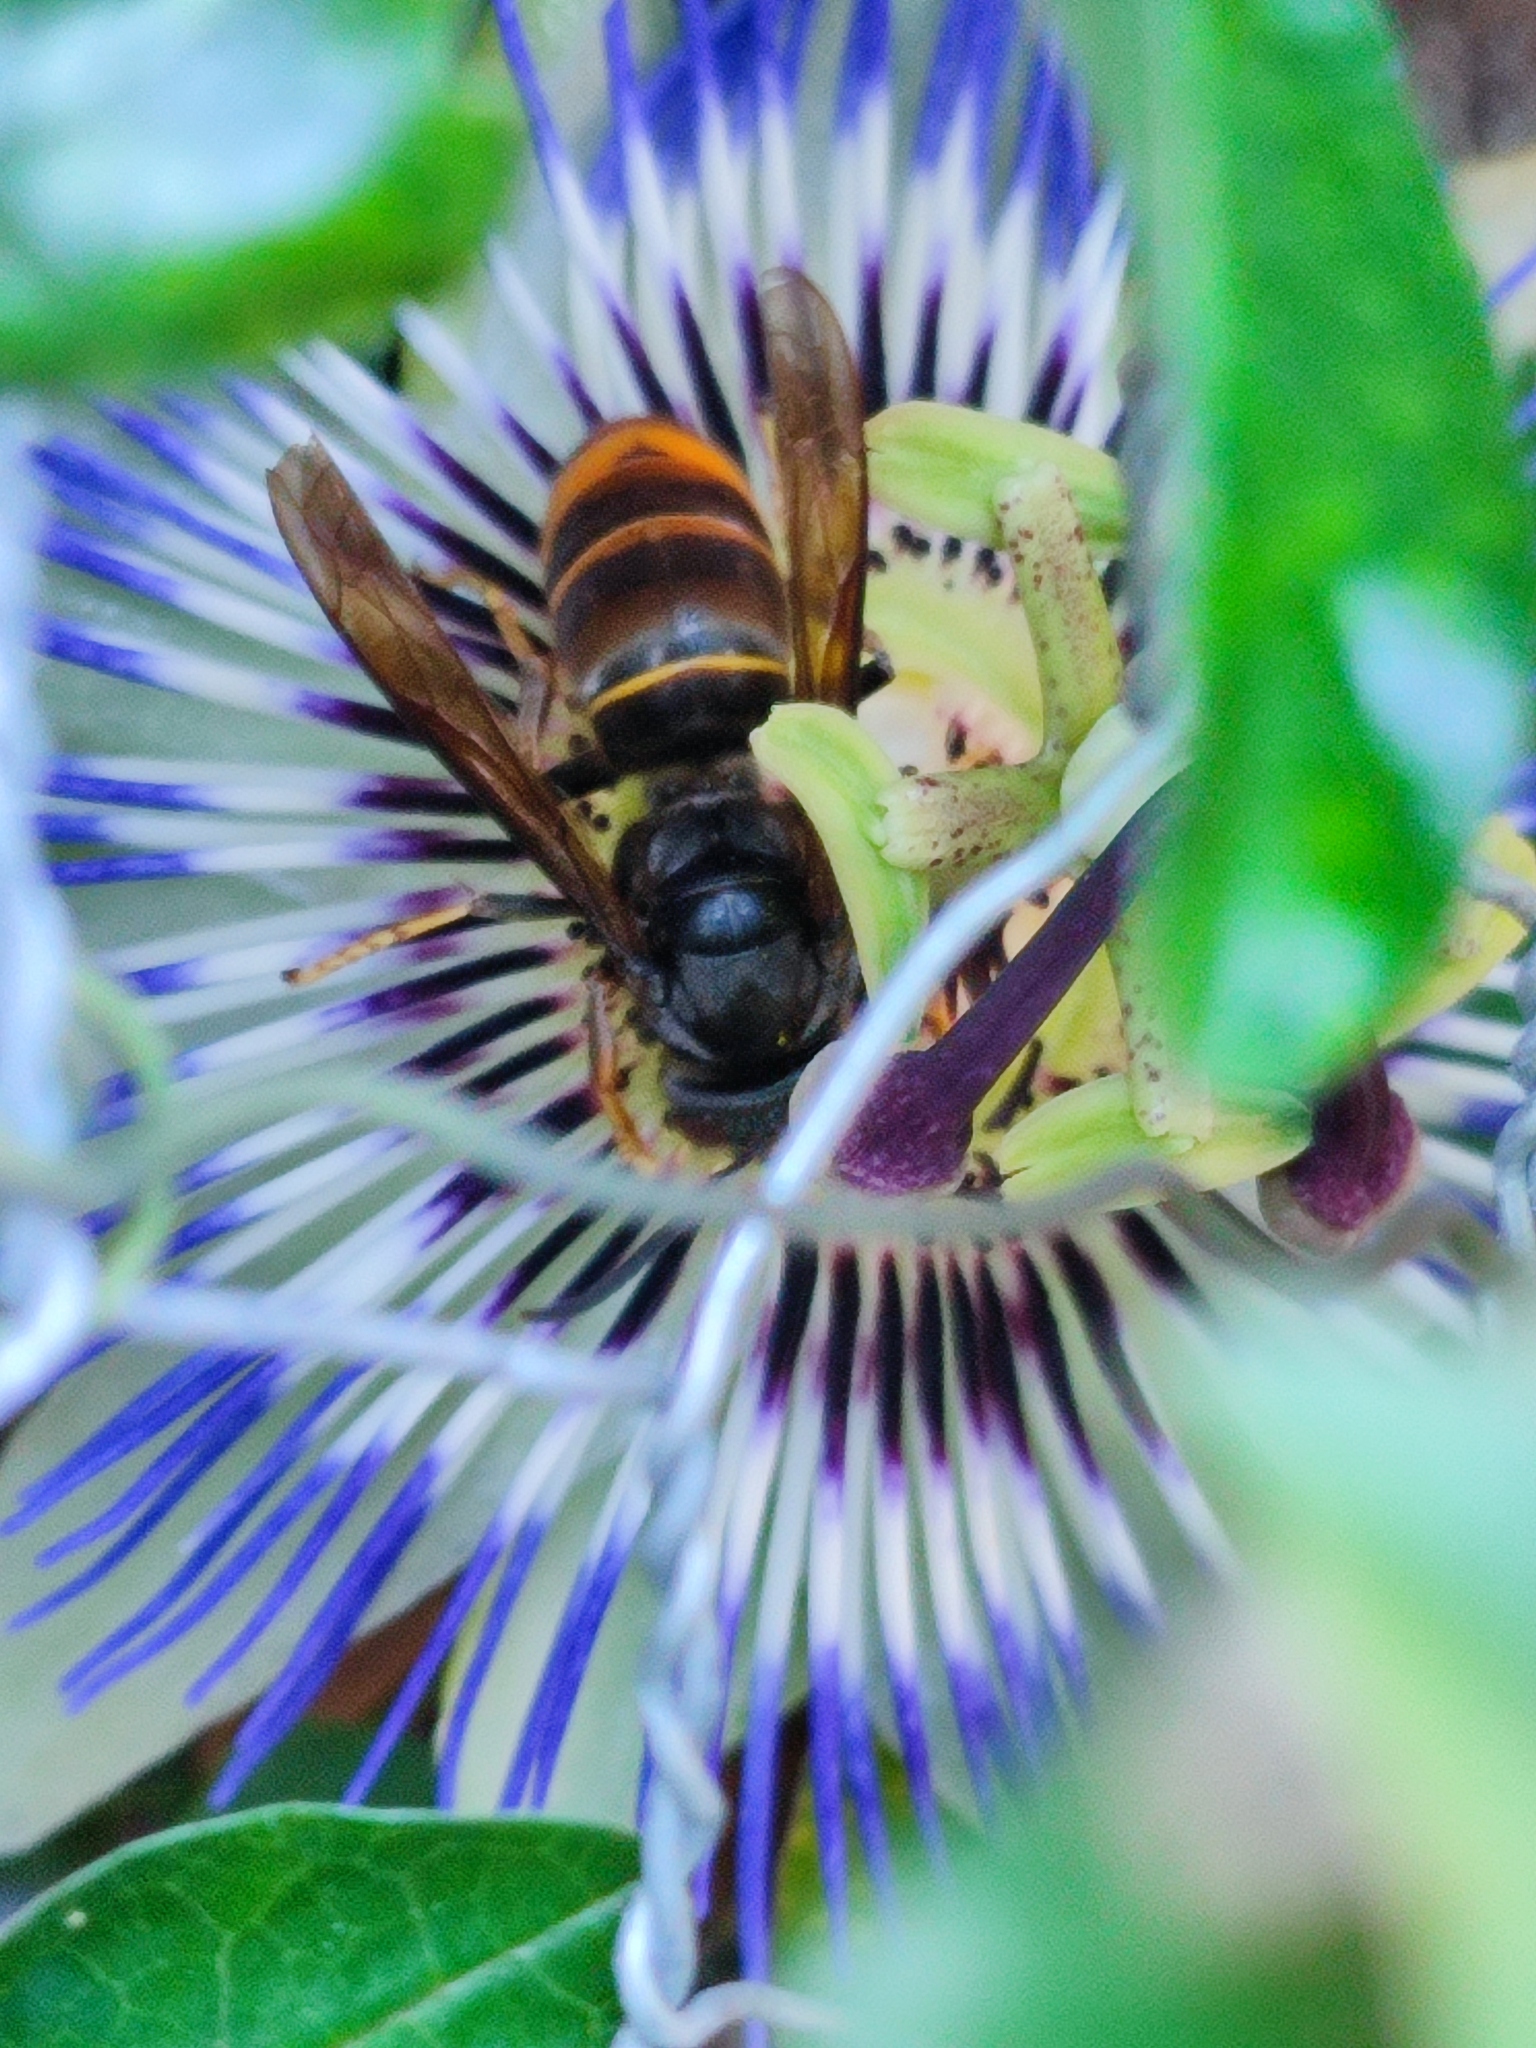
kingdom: Animalia
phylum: Arthropoda
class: Insecta
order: Hymenoptera
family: Vespidae
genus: Vespa
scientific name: Vespa velutina
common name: Asian hornet
